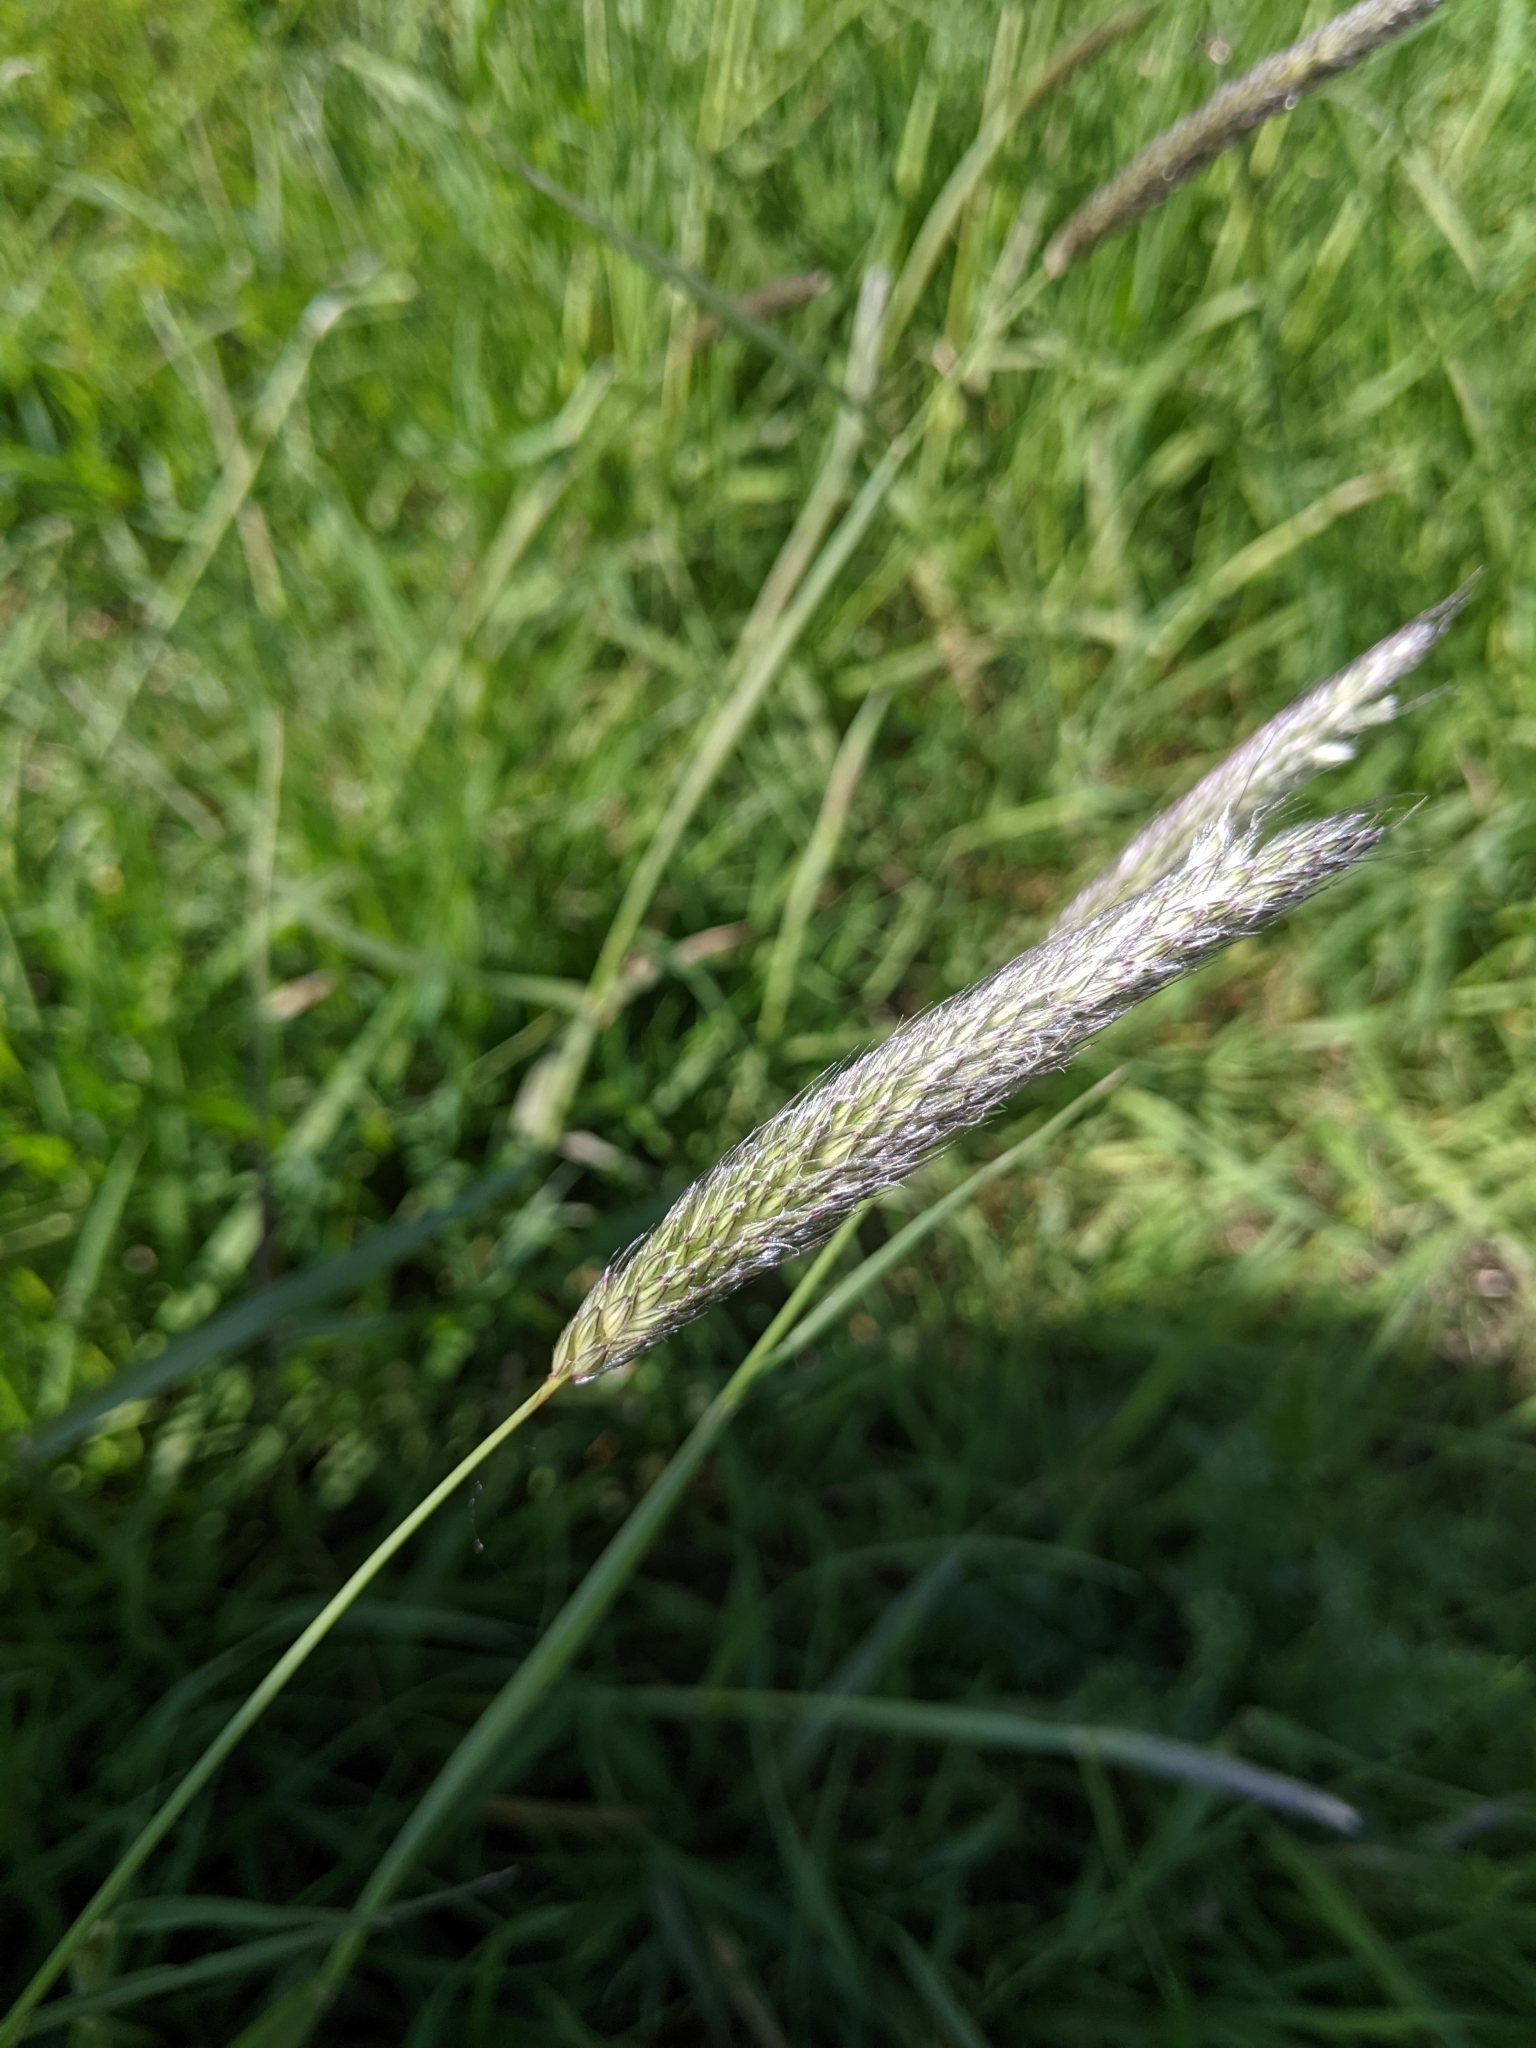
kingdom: Plantae
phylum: Tracheophyta
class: Liliopsida
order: Poales
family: Poaceae
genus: Alopecurus
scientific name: Alopecurus pratensis
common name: Meadow foxtail
